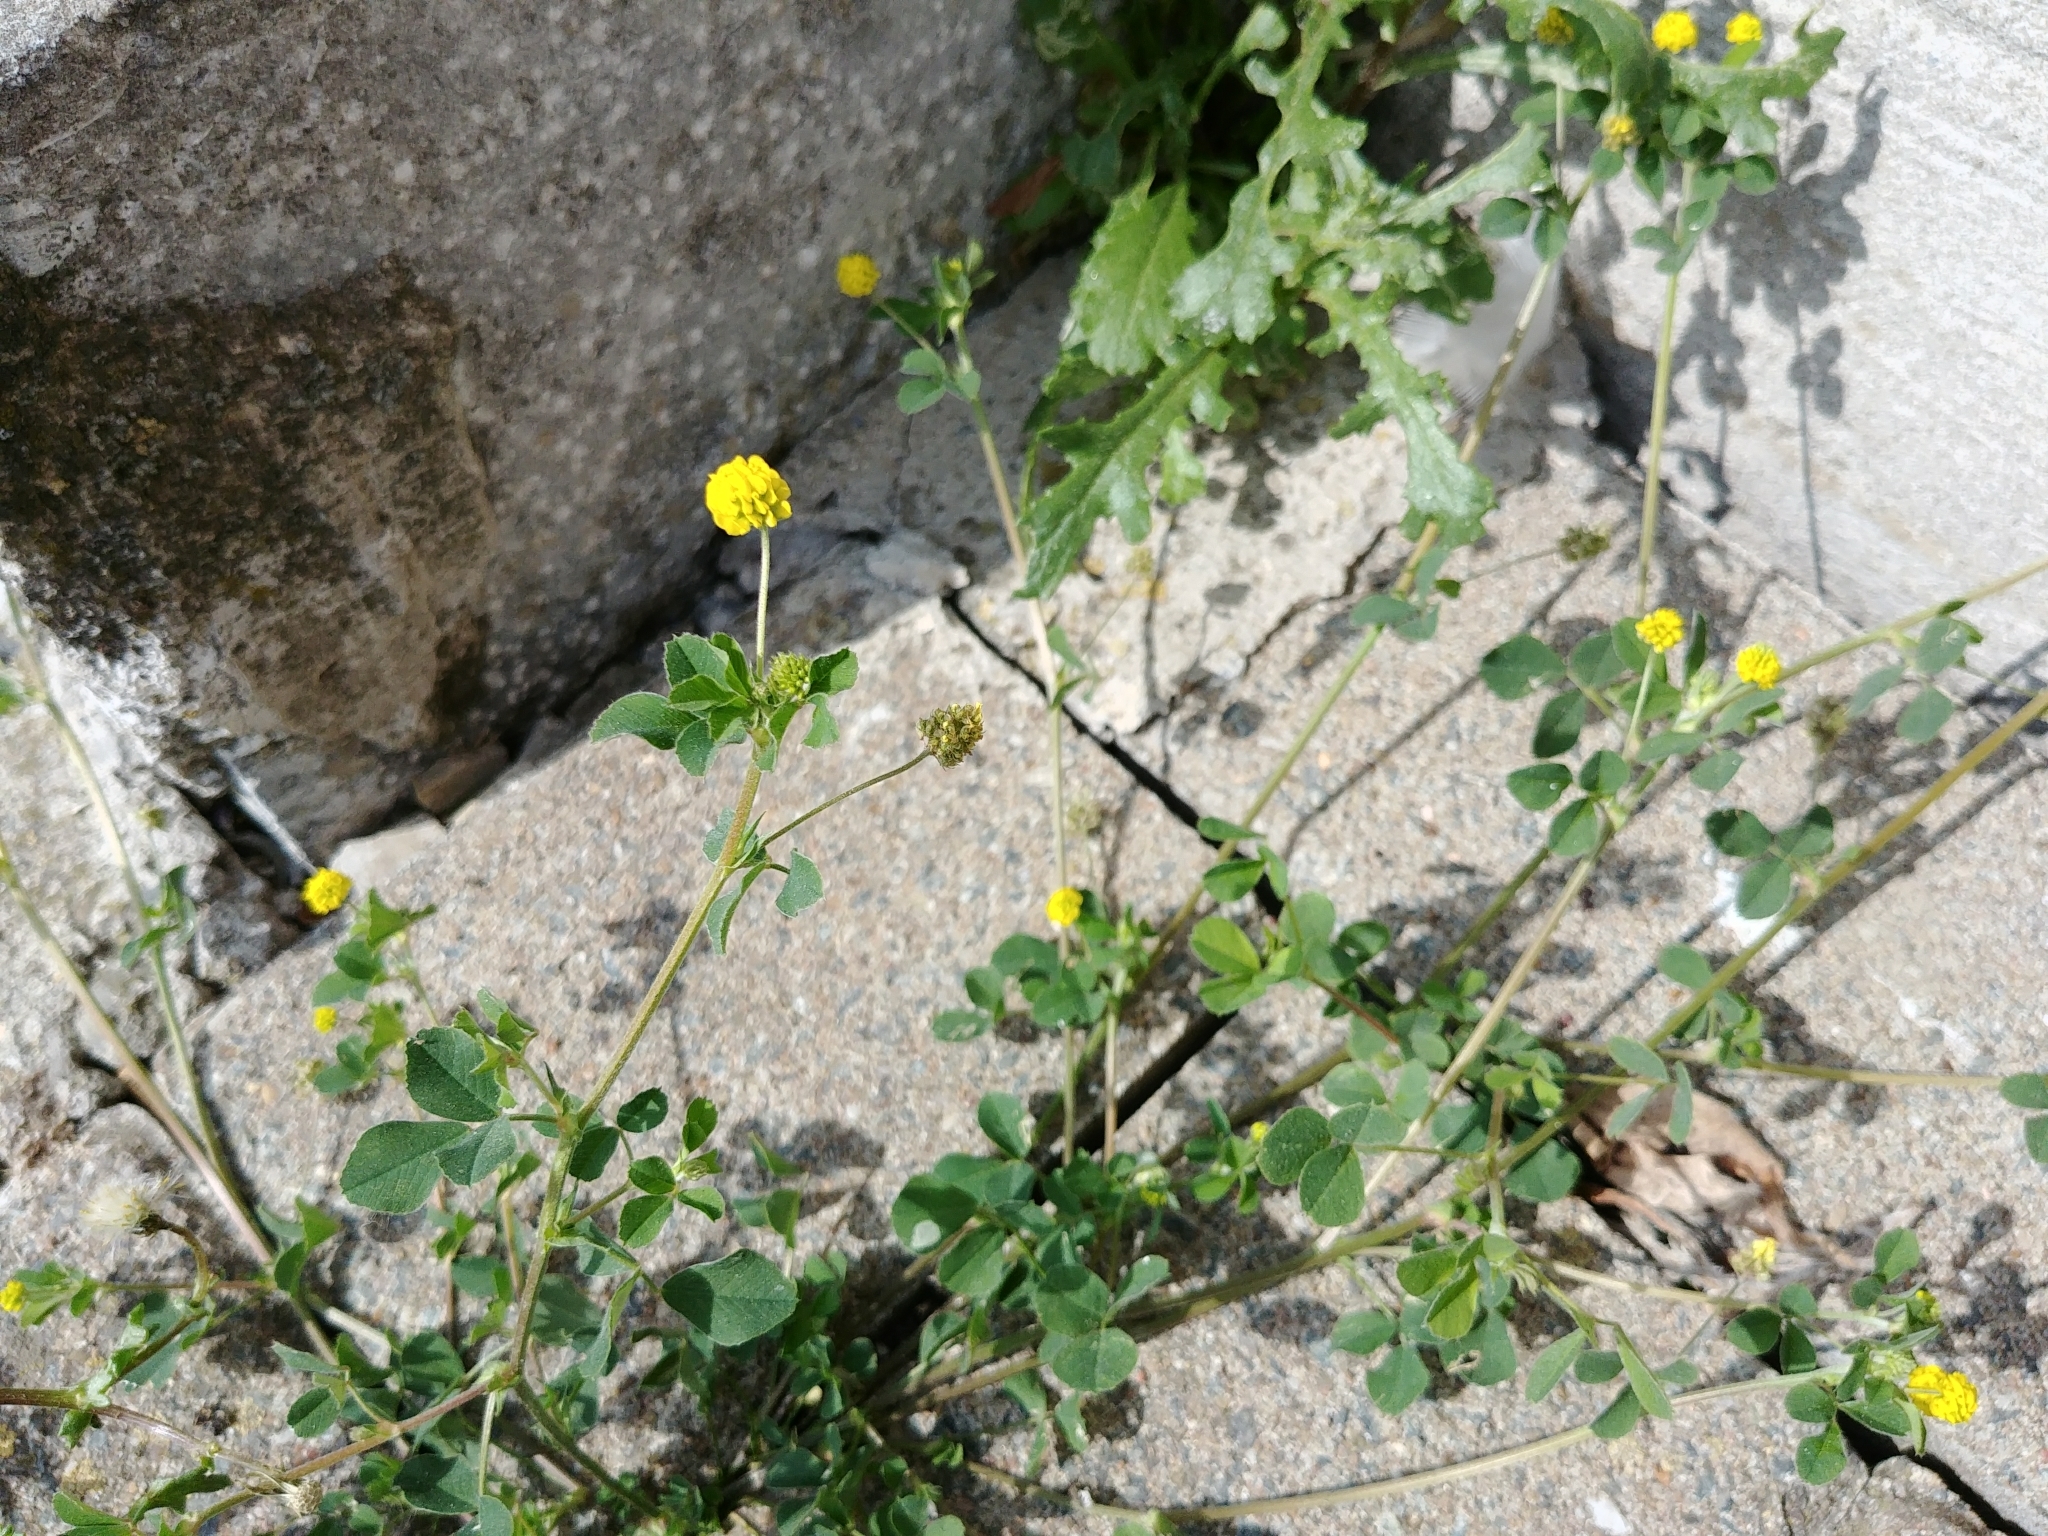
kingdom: Plantae
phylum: Tracheophyta
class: Magnoliopsida
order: Fabales
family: Fabaceae
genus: Medicago
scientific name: Medicago lupulina
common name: Black medick
